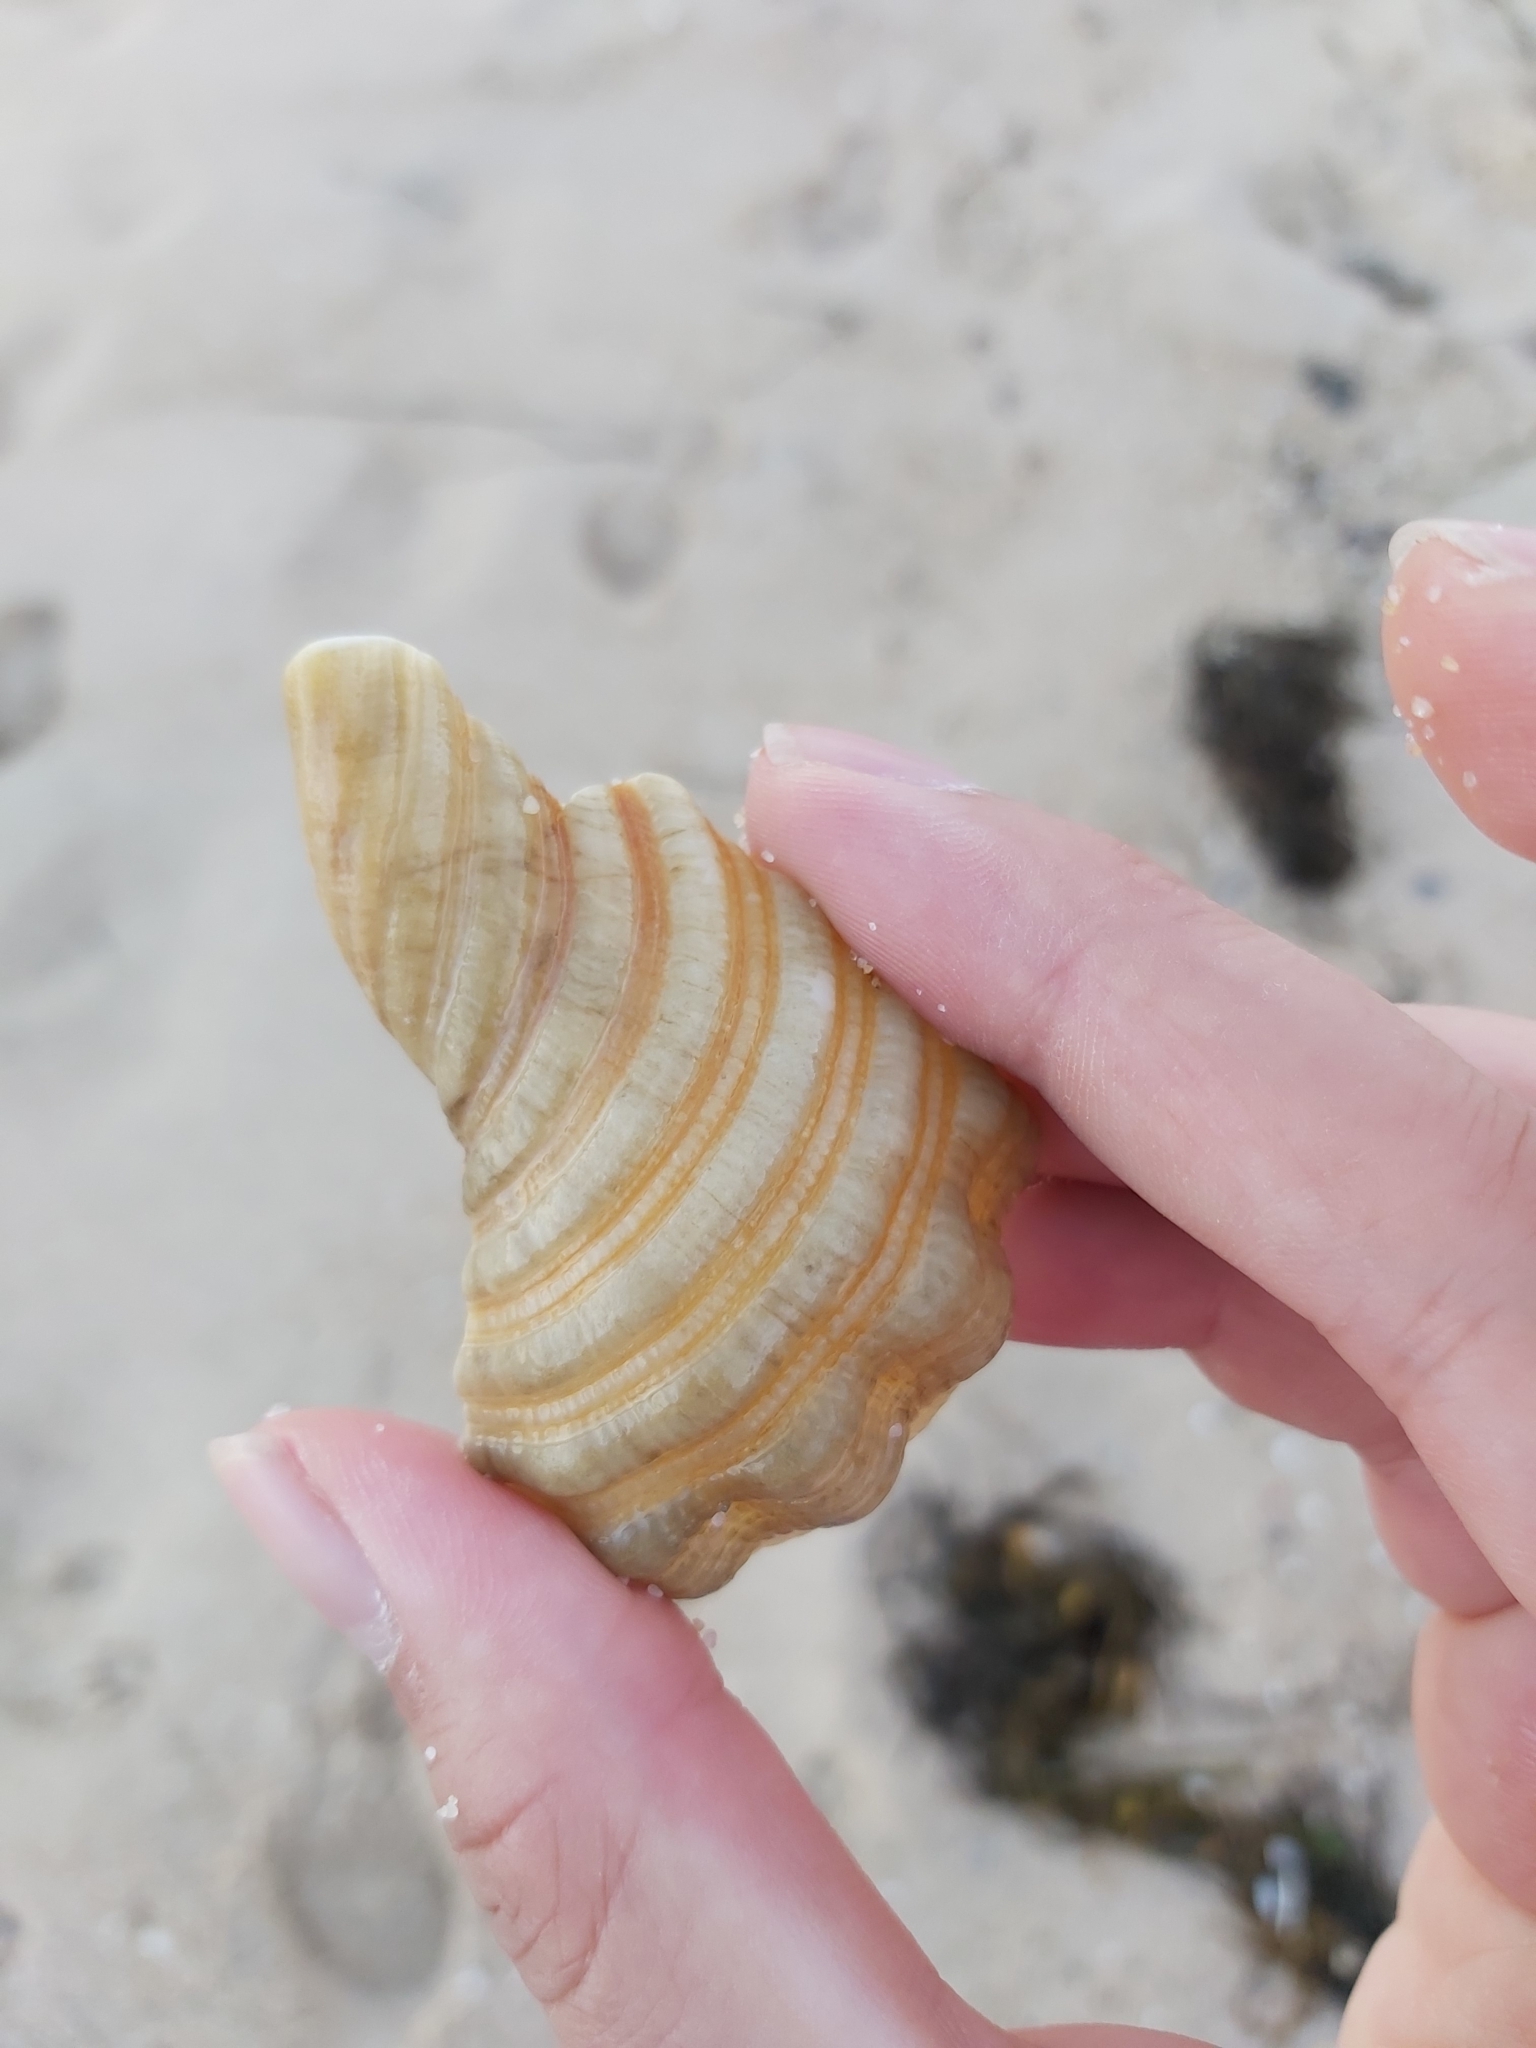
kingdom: Animalia
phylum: Mollusca
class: Gastropoda
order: Littorinimorpha
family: Cymatiidae
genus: Cabestana
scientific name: Cabestana spengleri
